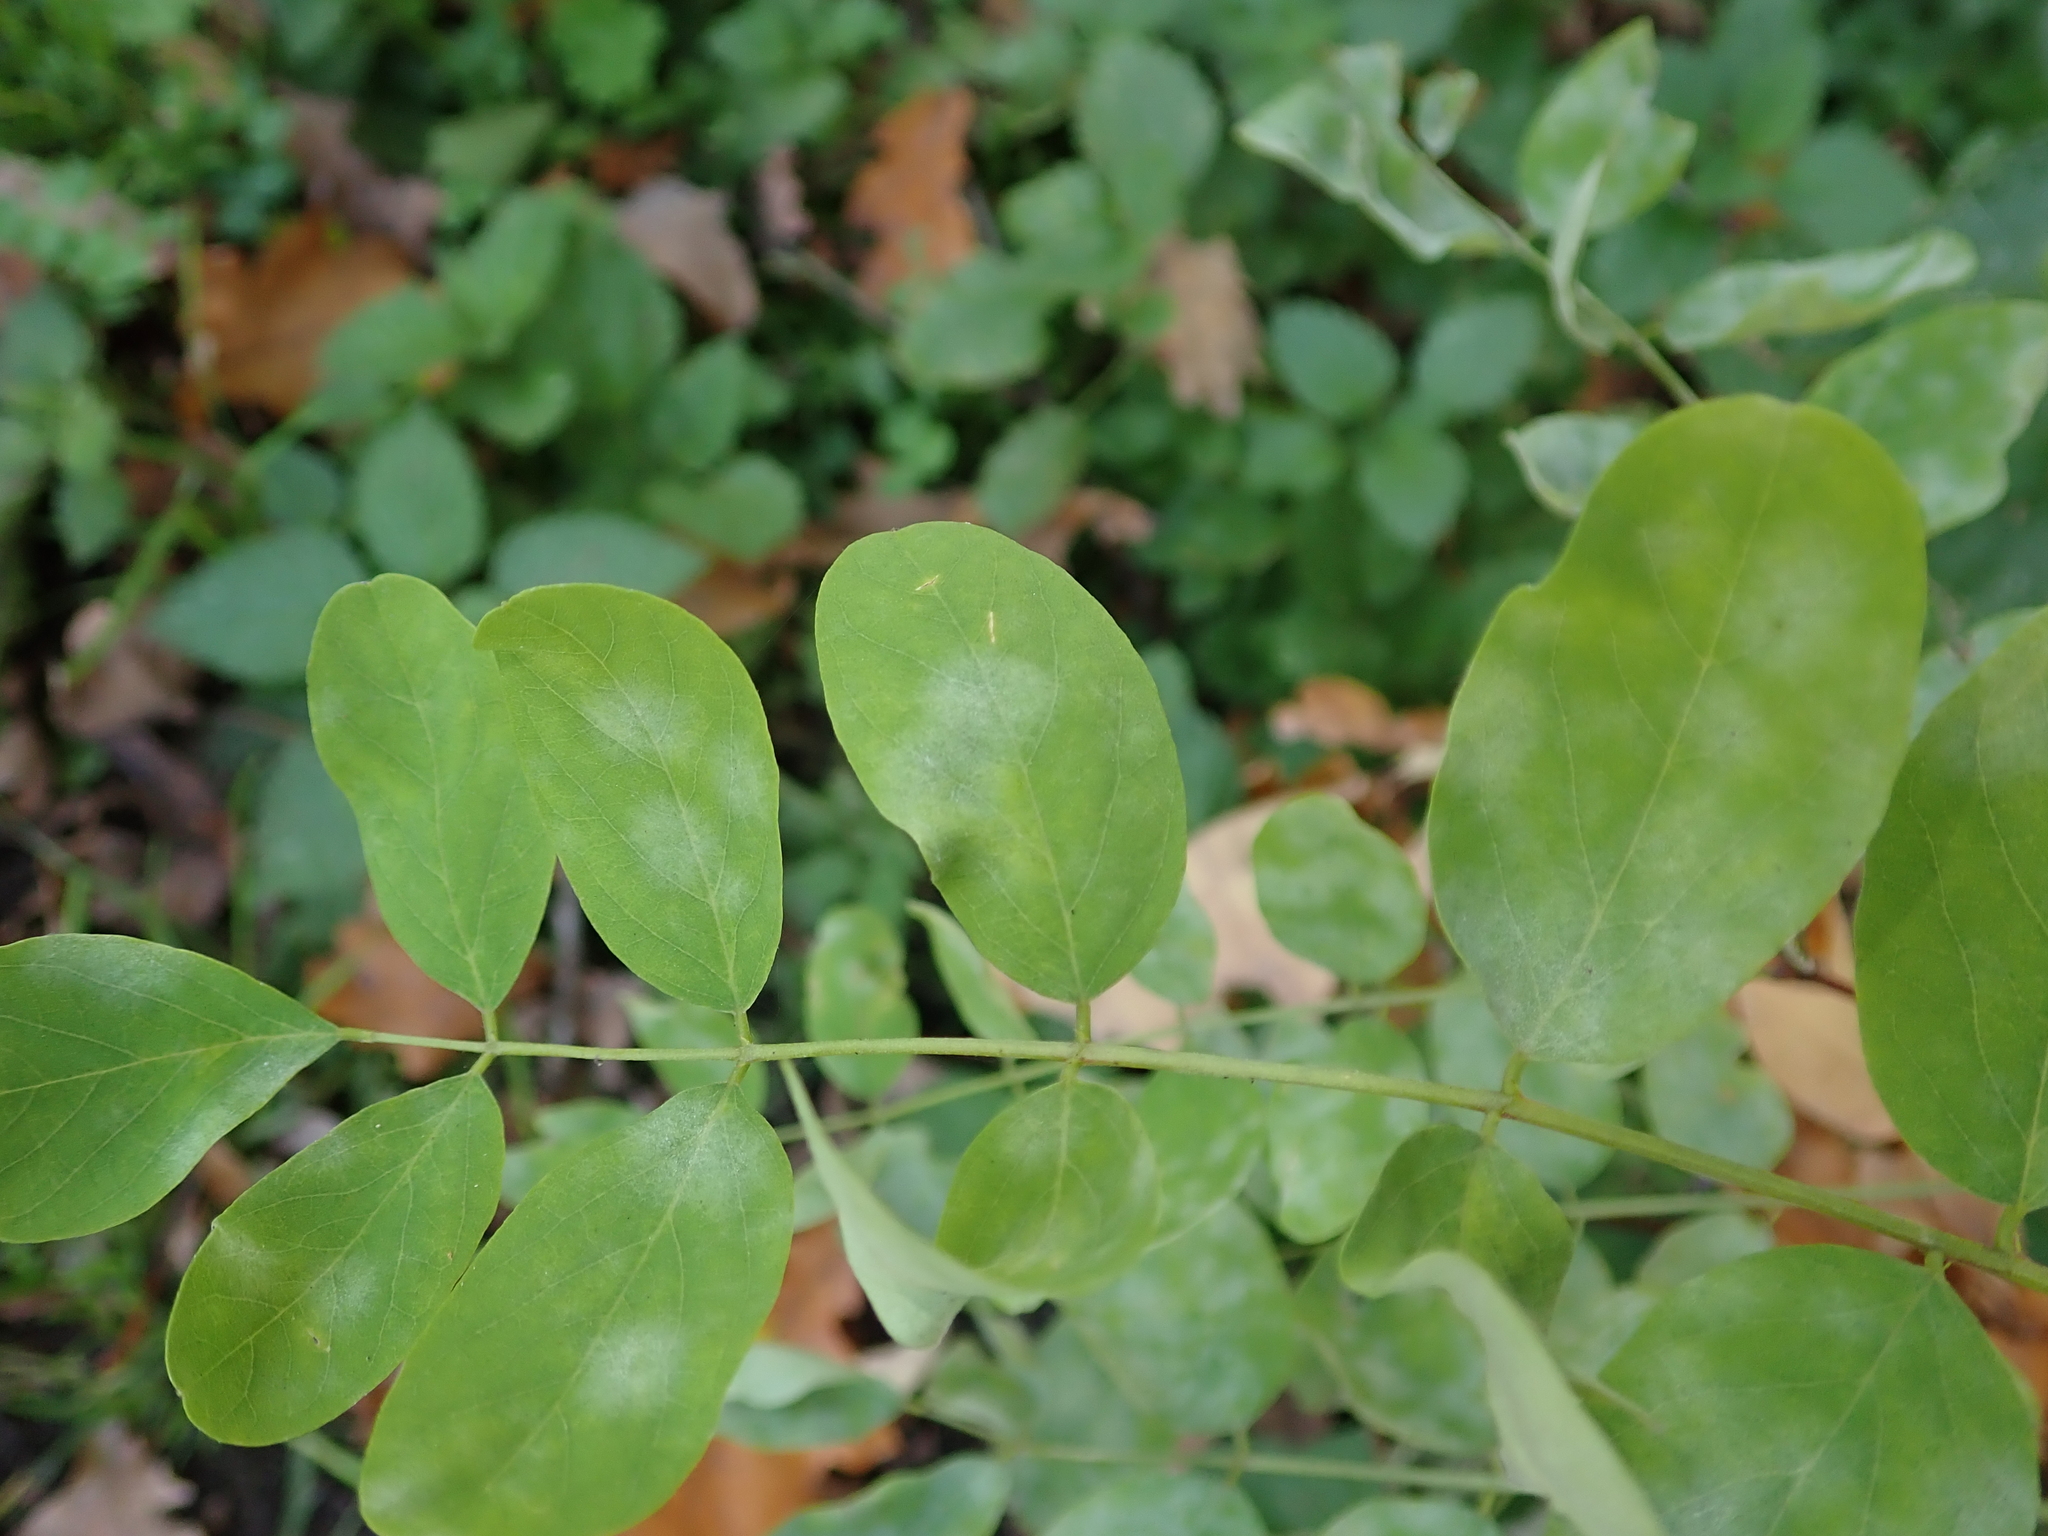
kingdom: Plantae
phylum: Tracheophyta
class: Magnoliopsida
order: Fabales
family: Fabaceae
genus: Robinia
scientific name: Robinia pseudoacacia
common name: Black locust
